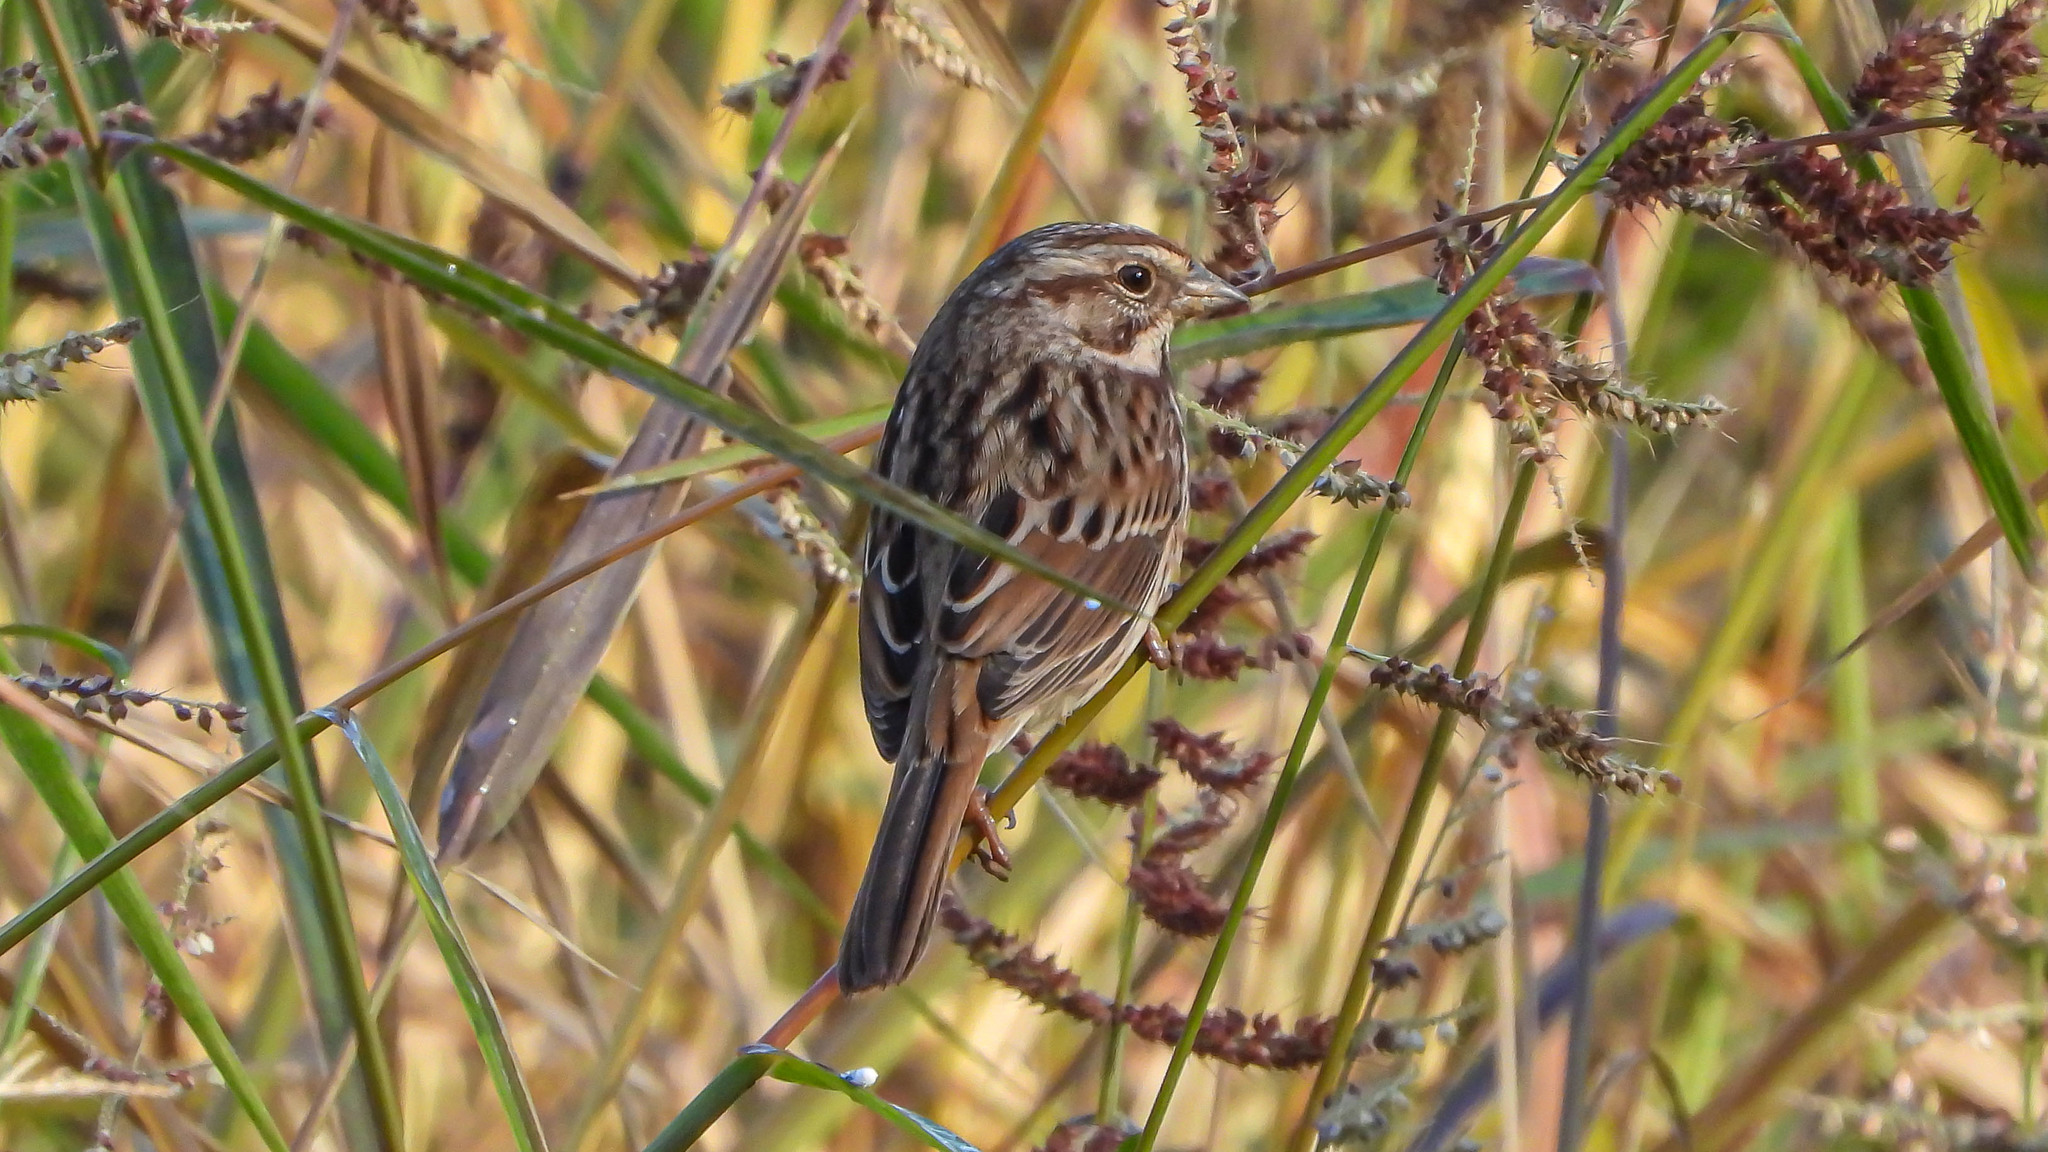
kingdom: Animalia
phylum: Chordata
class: Aves
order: Passeriformes
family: Passerellidae
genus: Melospiza
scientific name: Melospiza melodia
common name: Song sparrow
